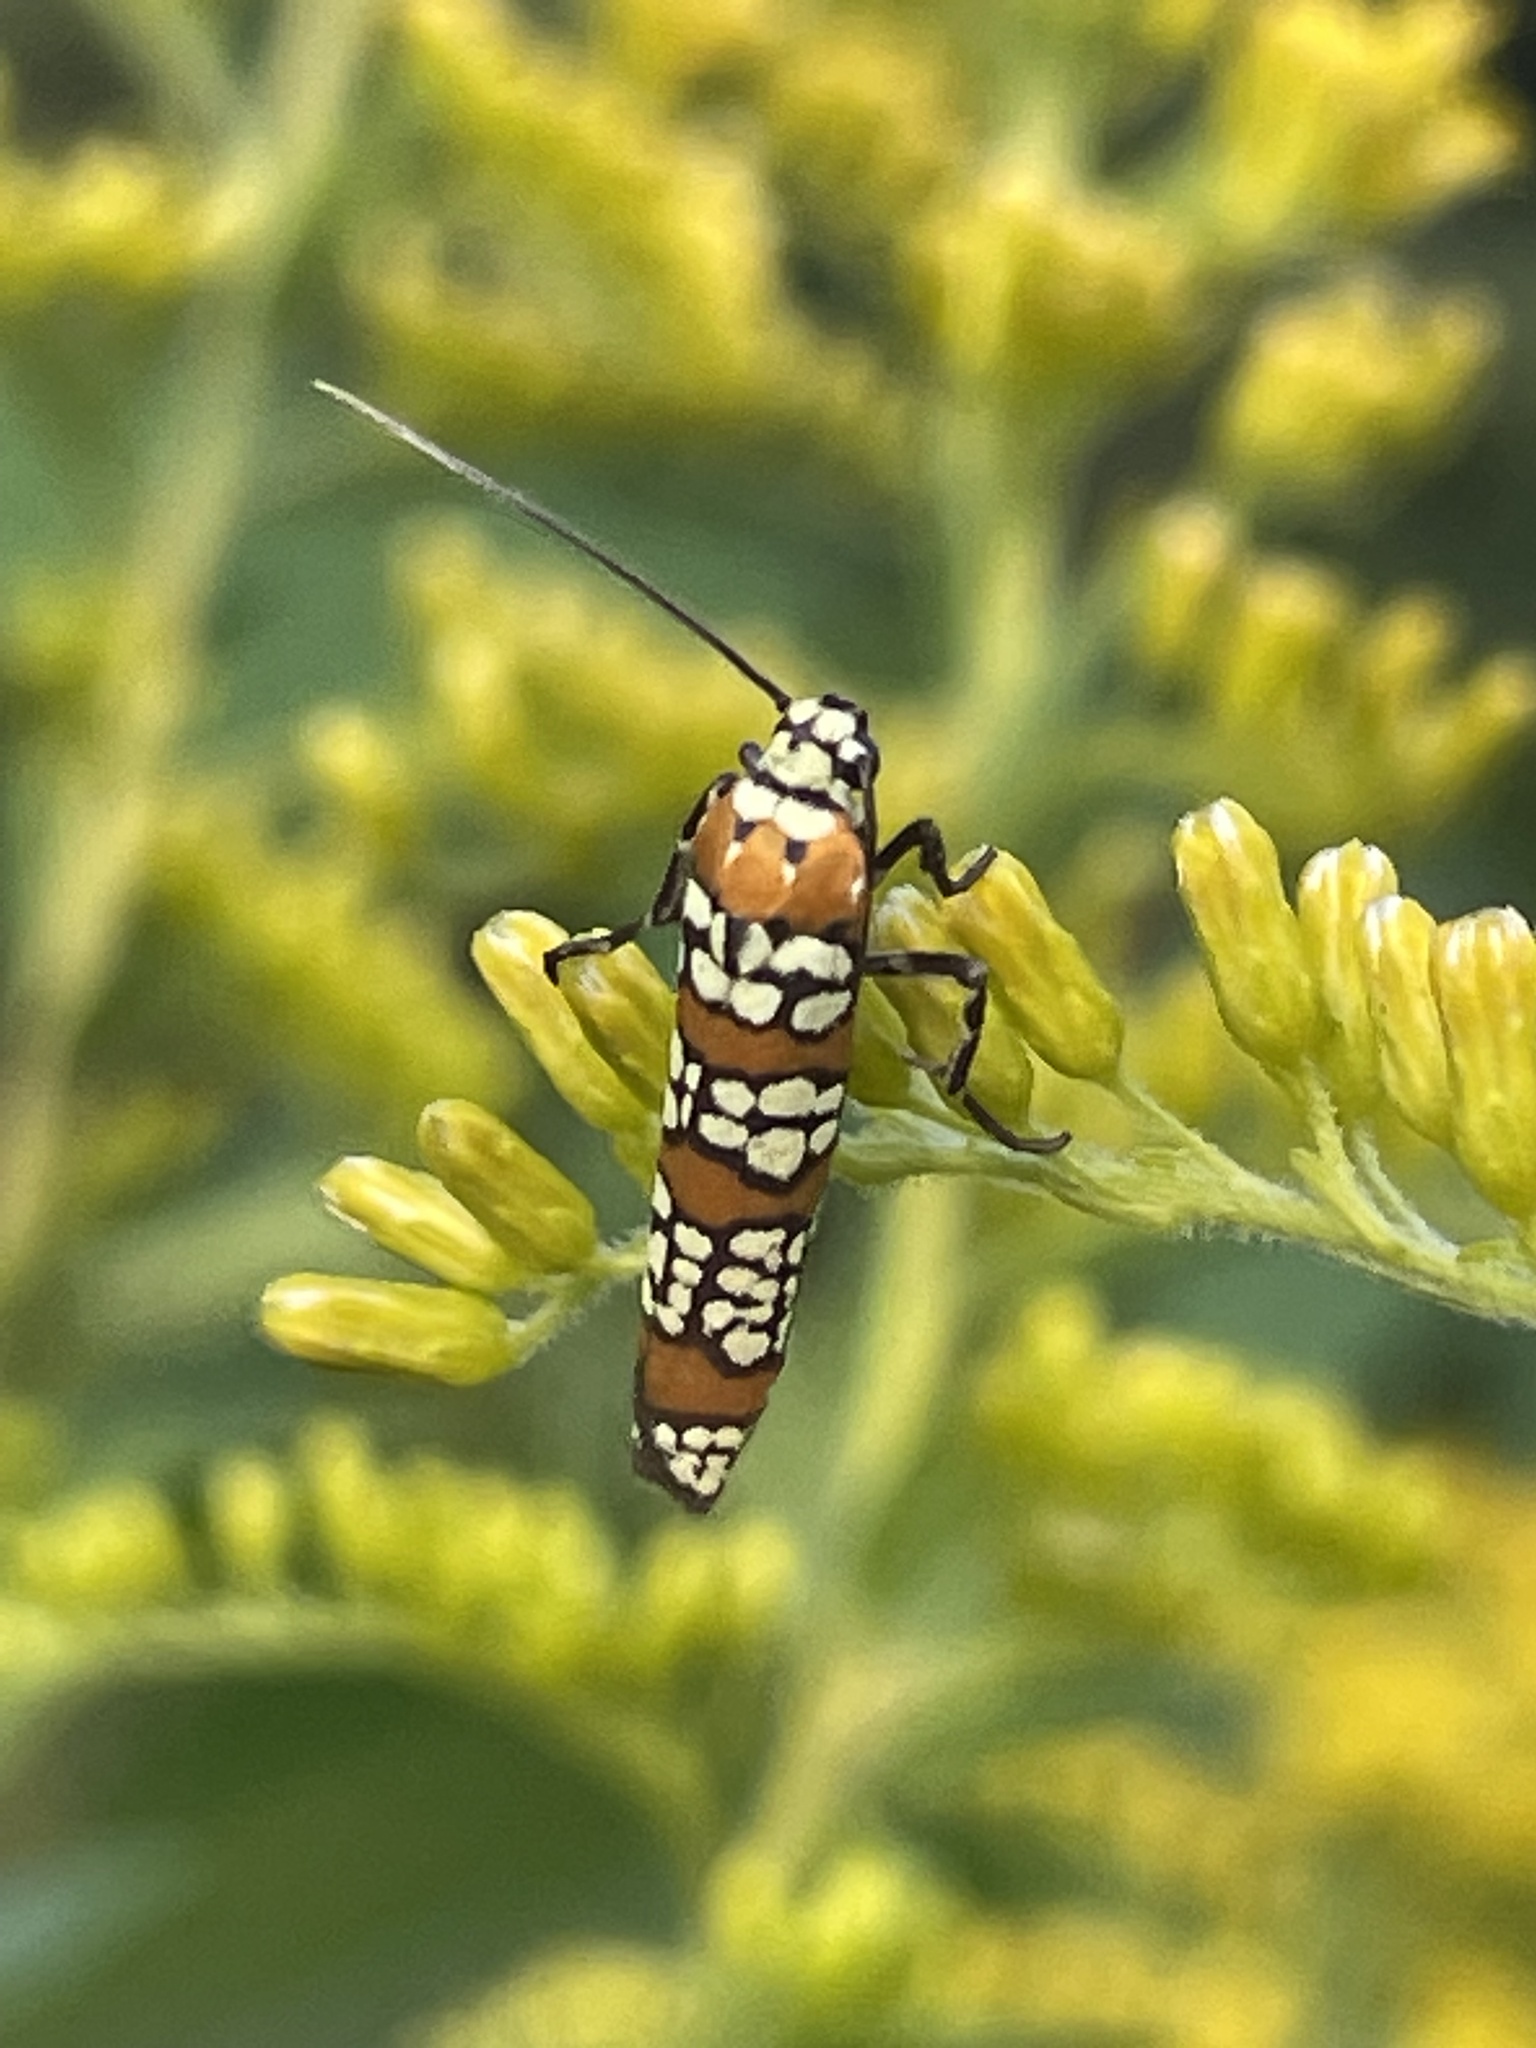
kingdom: Animalia
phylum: Arthropoda
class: Insecta
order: Lepidoptera
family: Attevidae
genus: Atteva
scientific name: Atteva punctella
